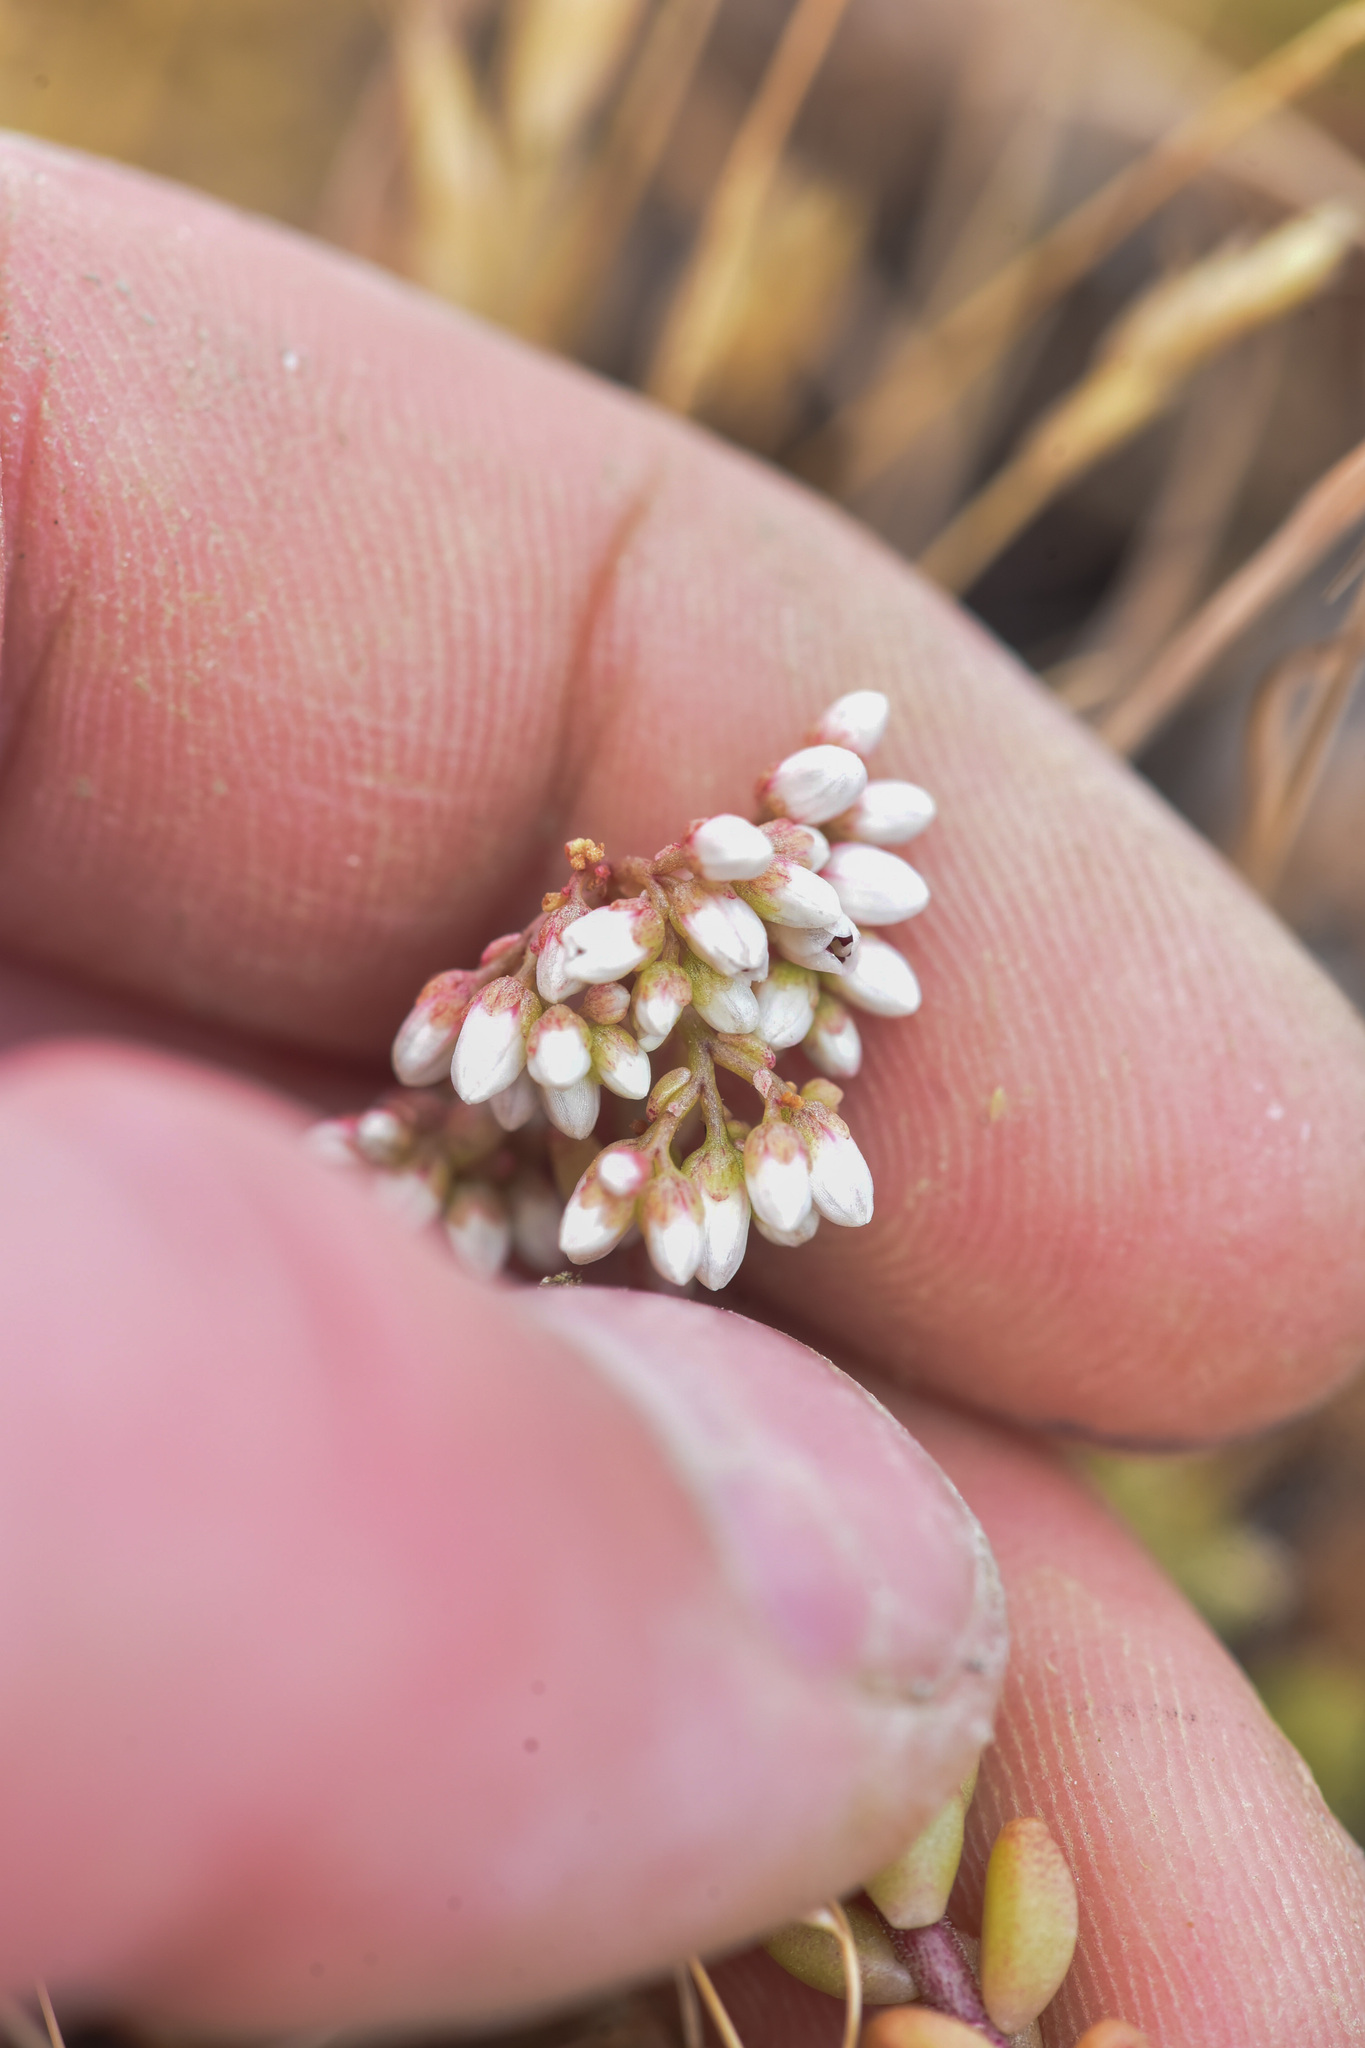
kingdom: Plantae
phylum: Tracheophyta
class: Magnoliopsida
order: Saxifragales
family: Crassulaceae
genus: Sedum
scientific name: Sedum album
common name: White stonecrop
